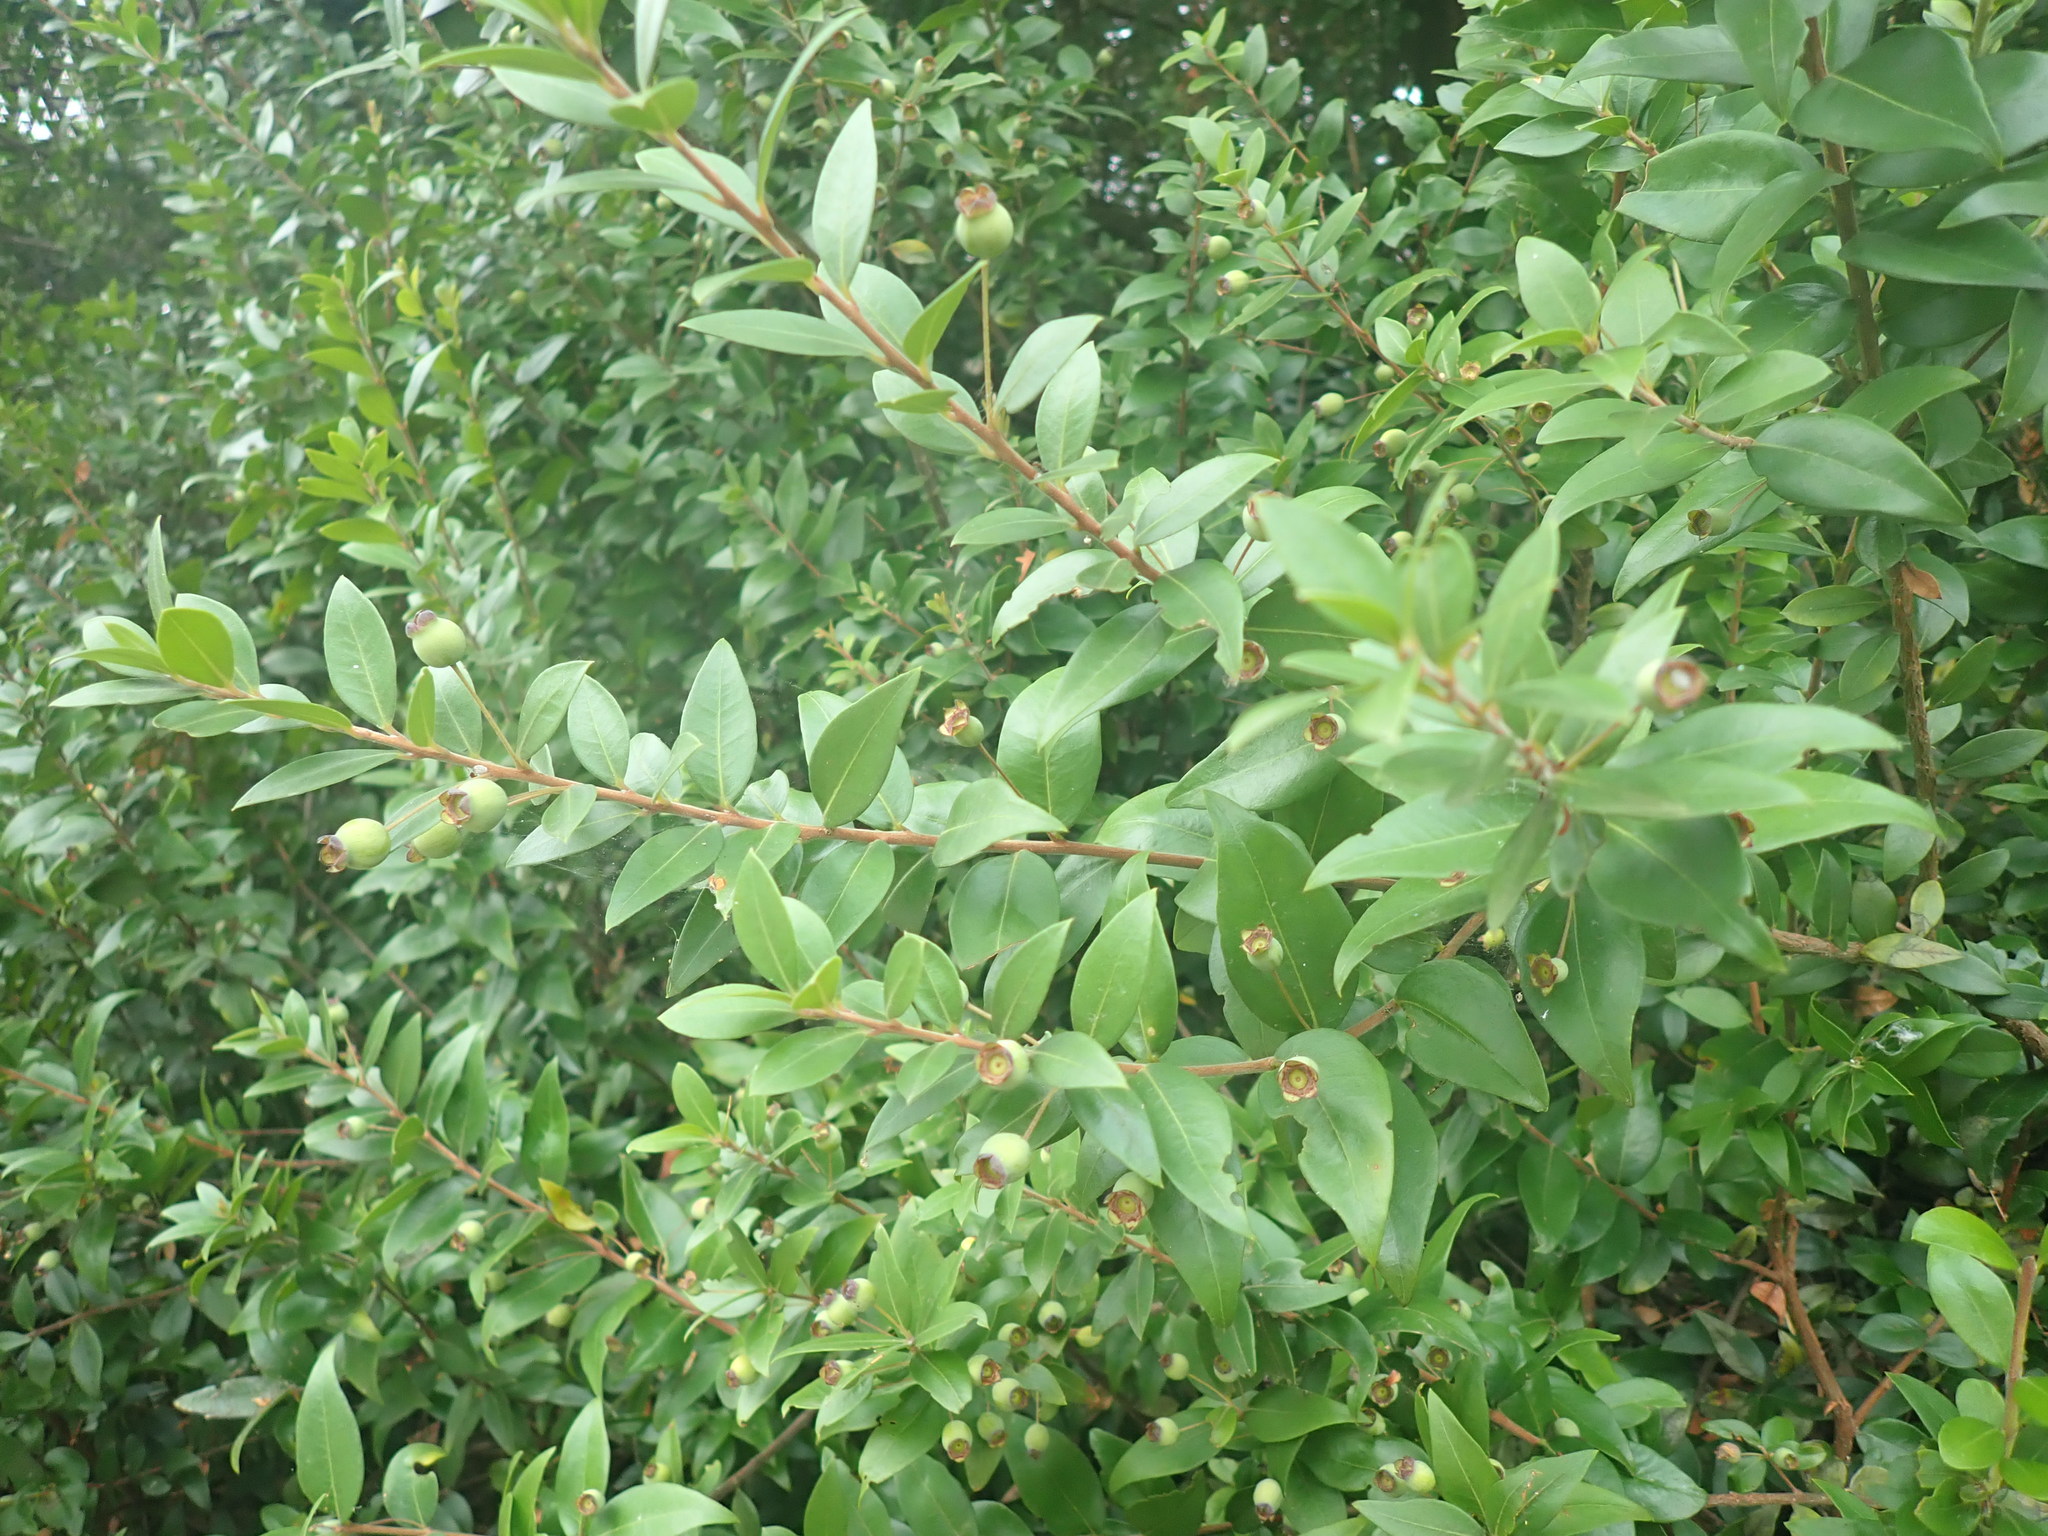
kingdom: Plantae
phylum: Tracheophyta
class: Magnoliopsida
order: Myrtales
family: Myrtaceae
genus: Myrtus
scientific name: Myrtus communis
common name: Myrtle
